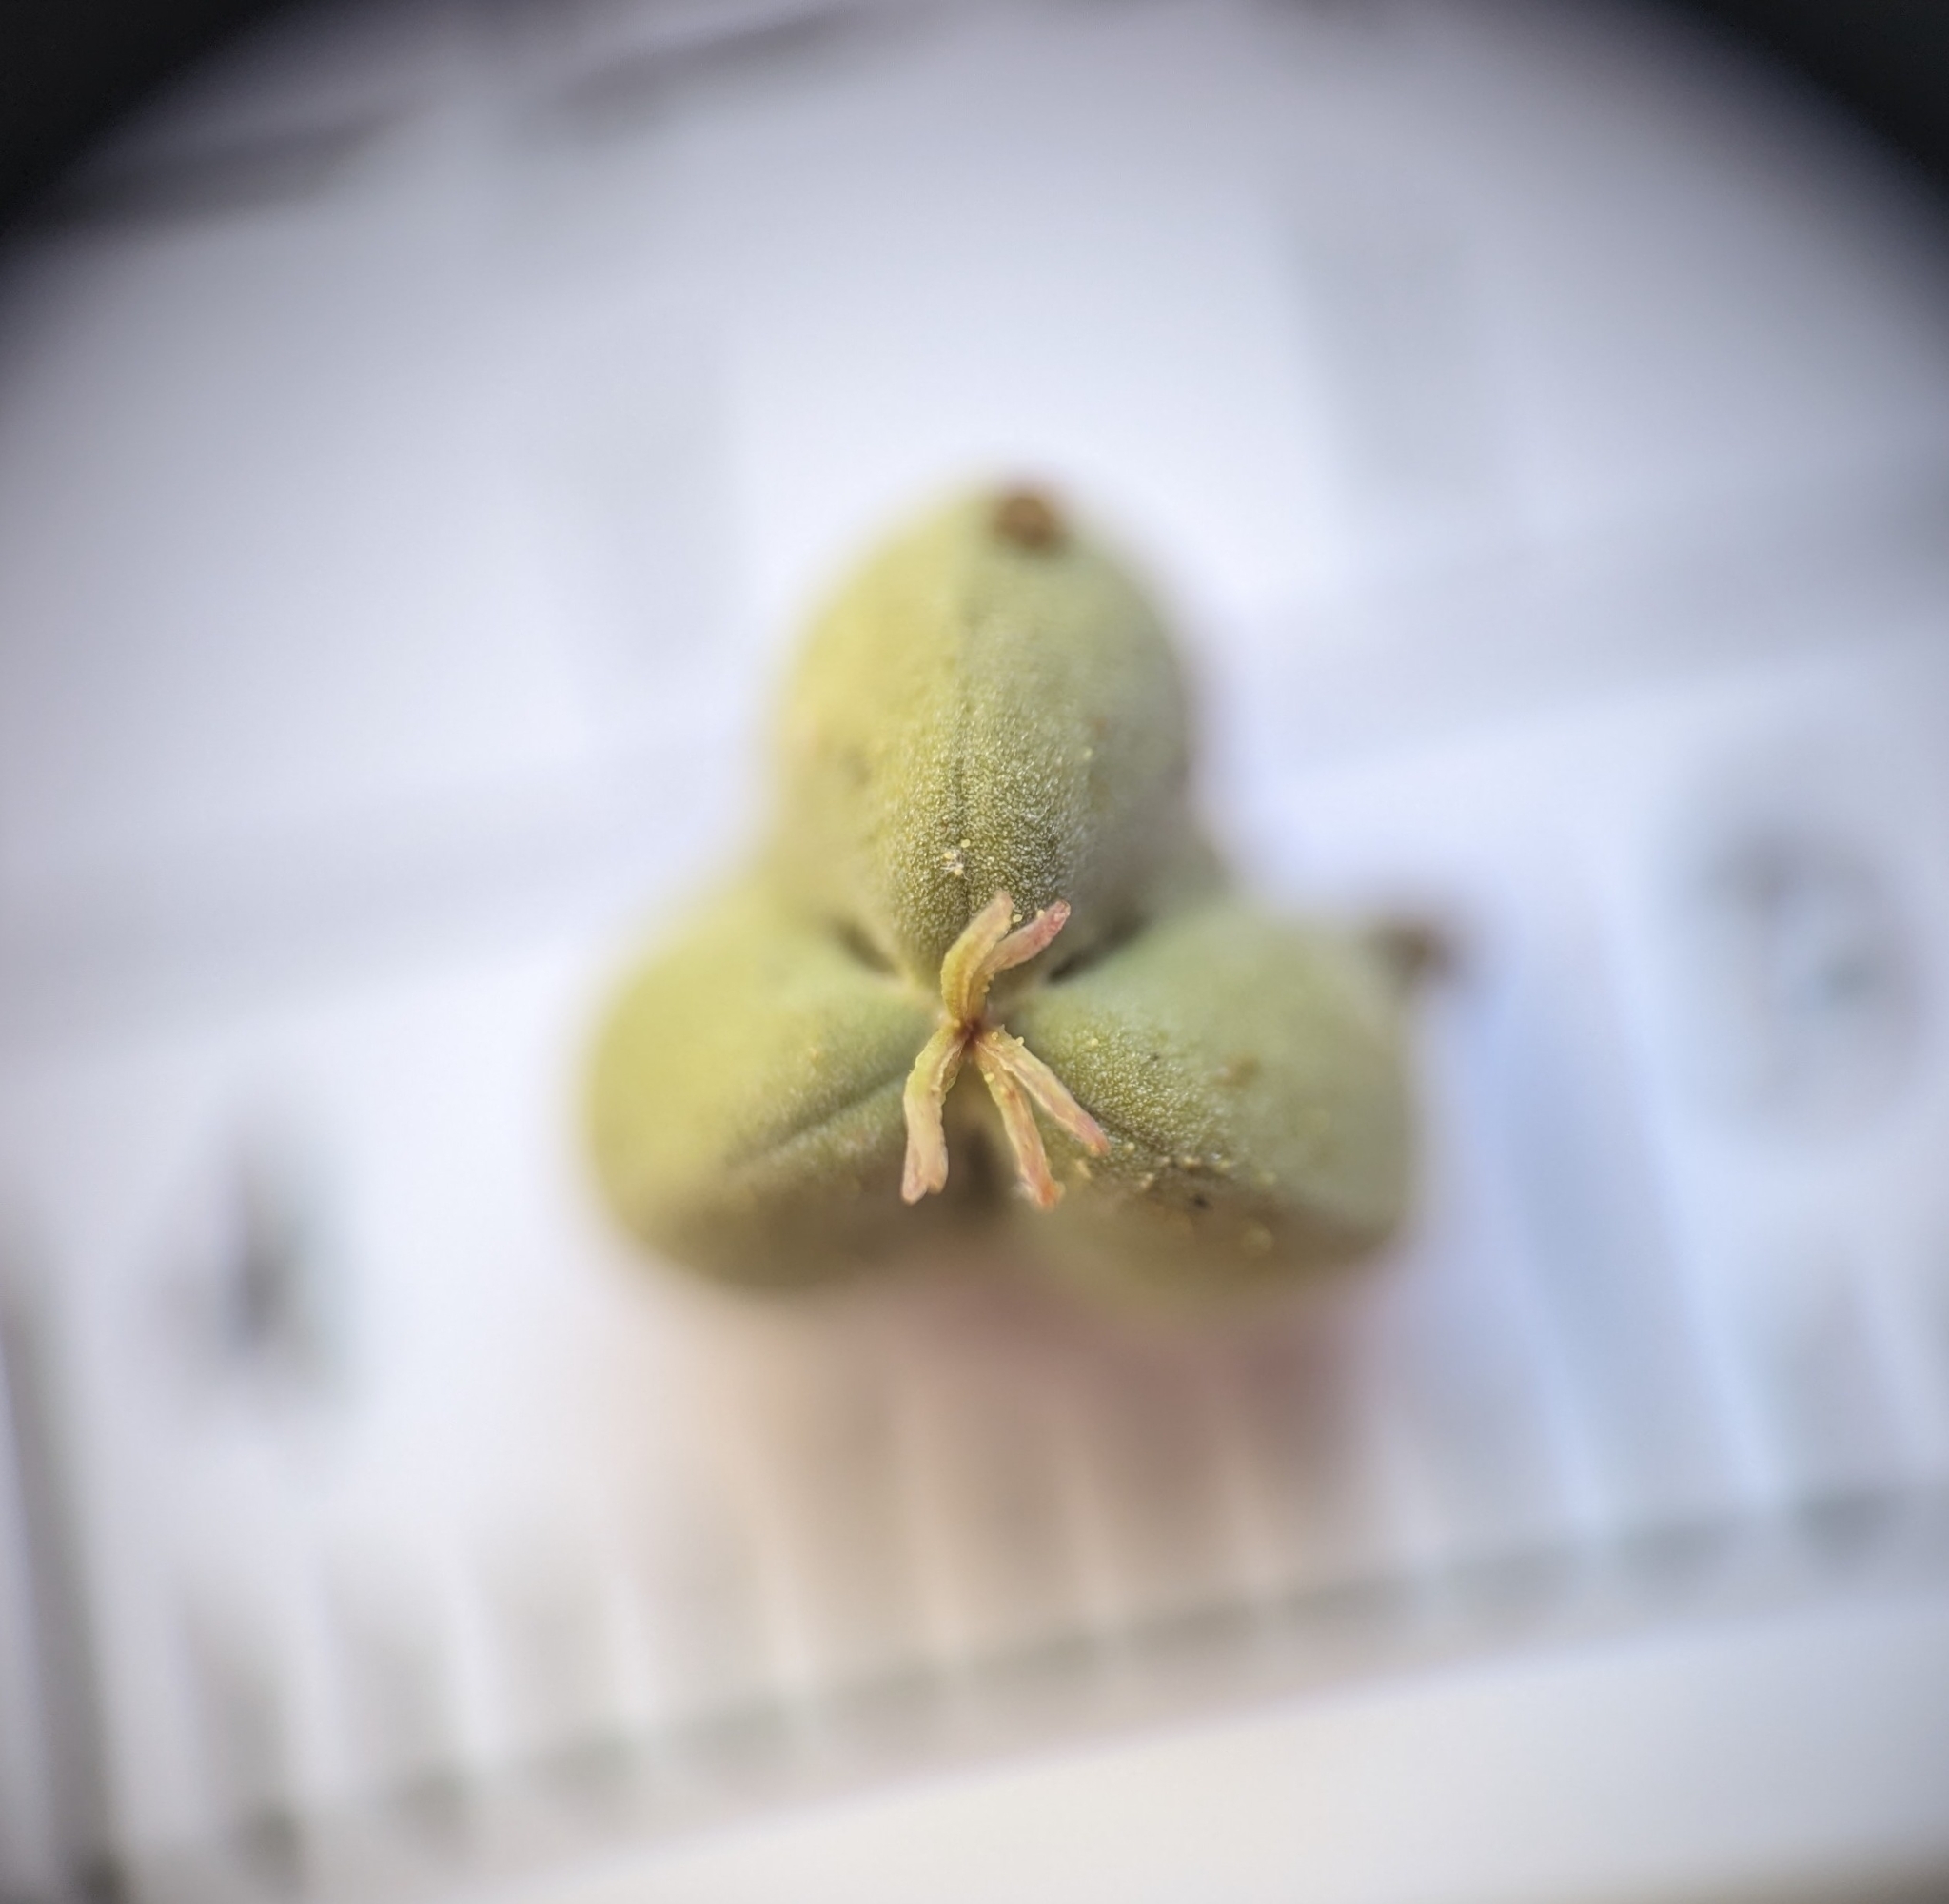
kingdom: Plantae
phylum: Tracheophyta
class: Magnoliopsida
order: Malpighiales
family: Euphorbiaceae
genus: Euphorbia
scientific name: Euphorbia heterophylla
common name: Mexican fireplant
